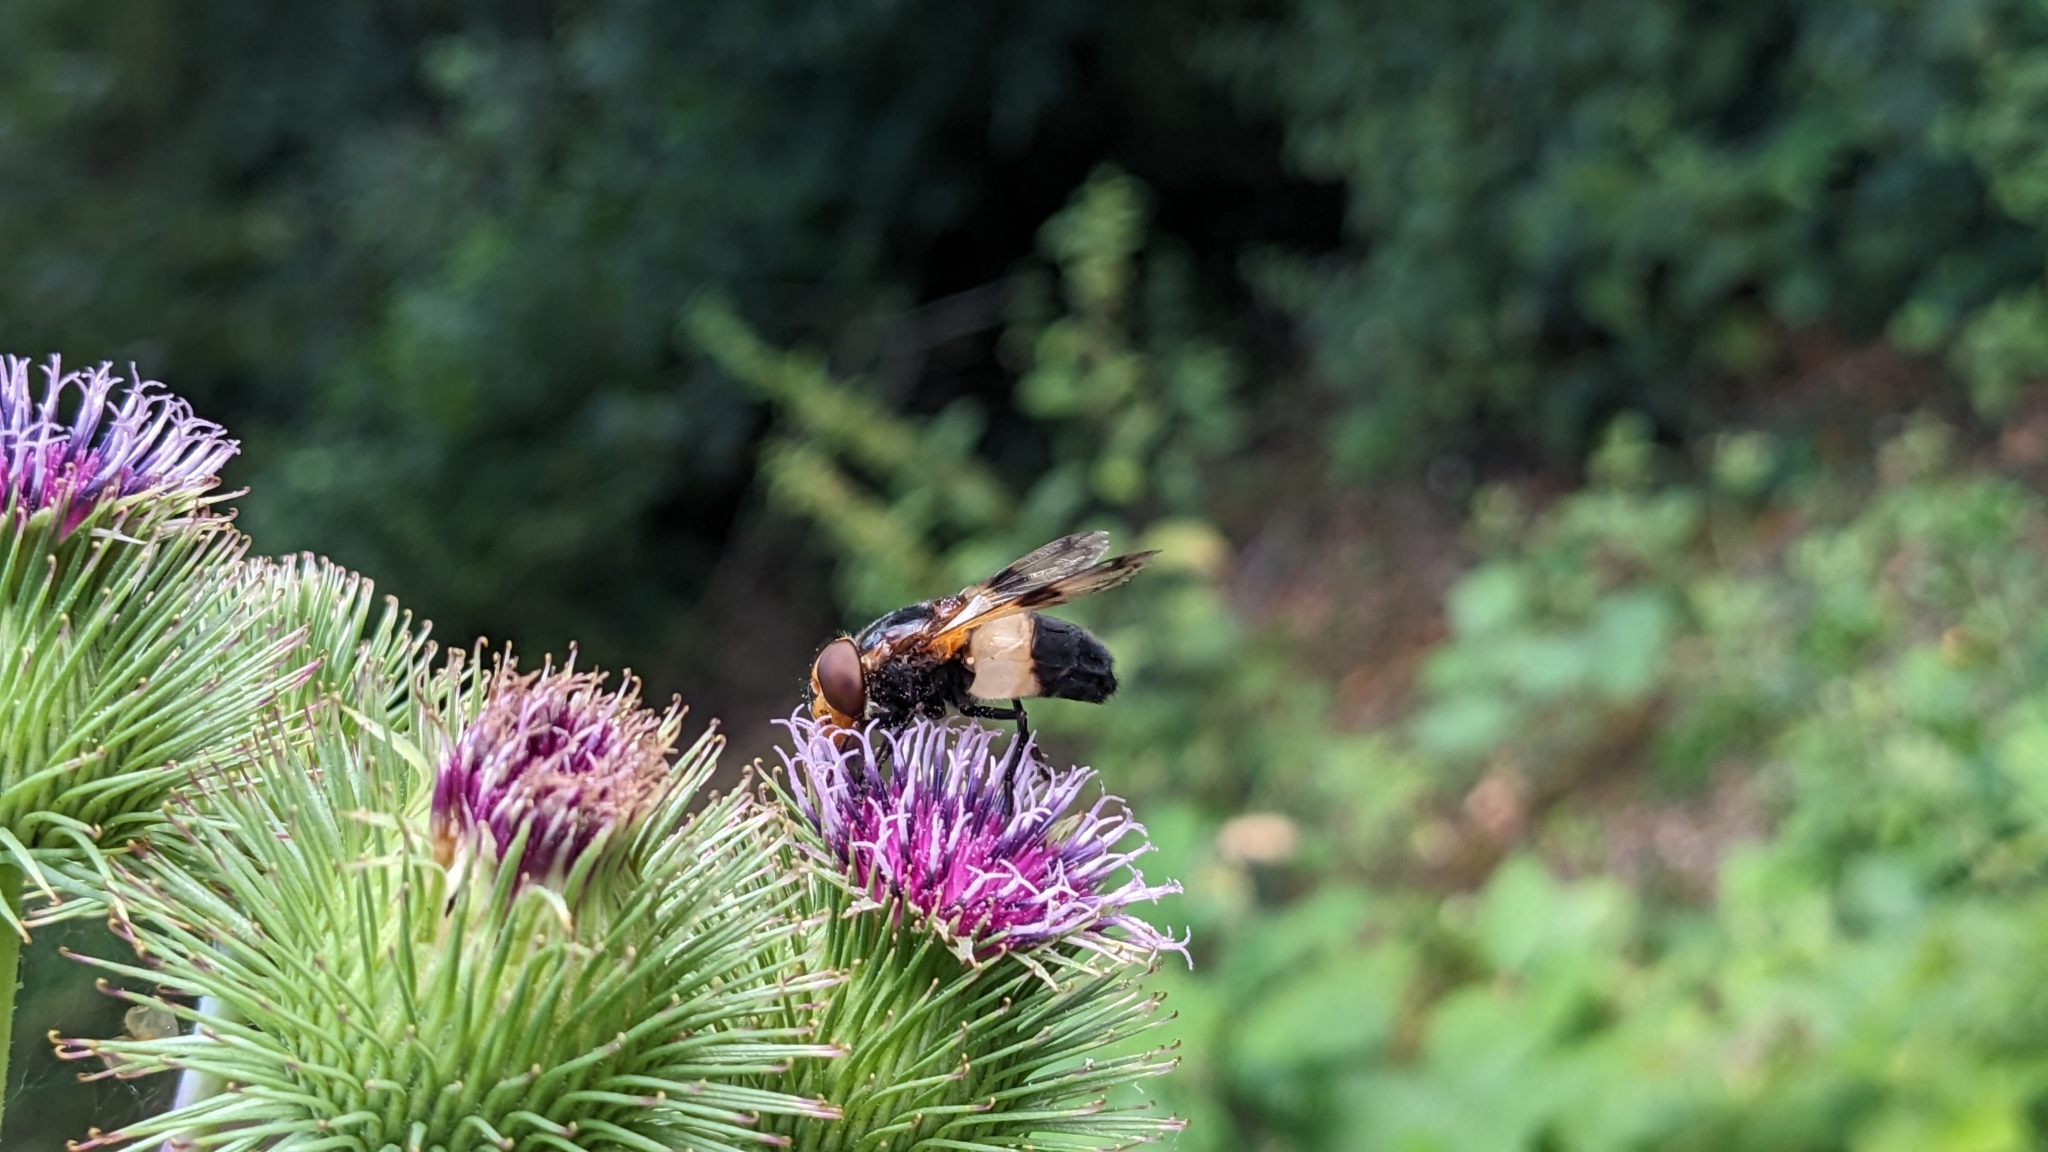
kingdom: Animalia
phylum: Arthropoda
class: Insecta
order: Diptera
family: Syrphidae
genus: Volucella
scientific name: Volucella pellucens
